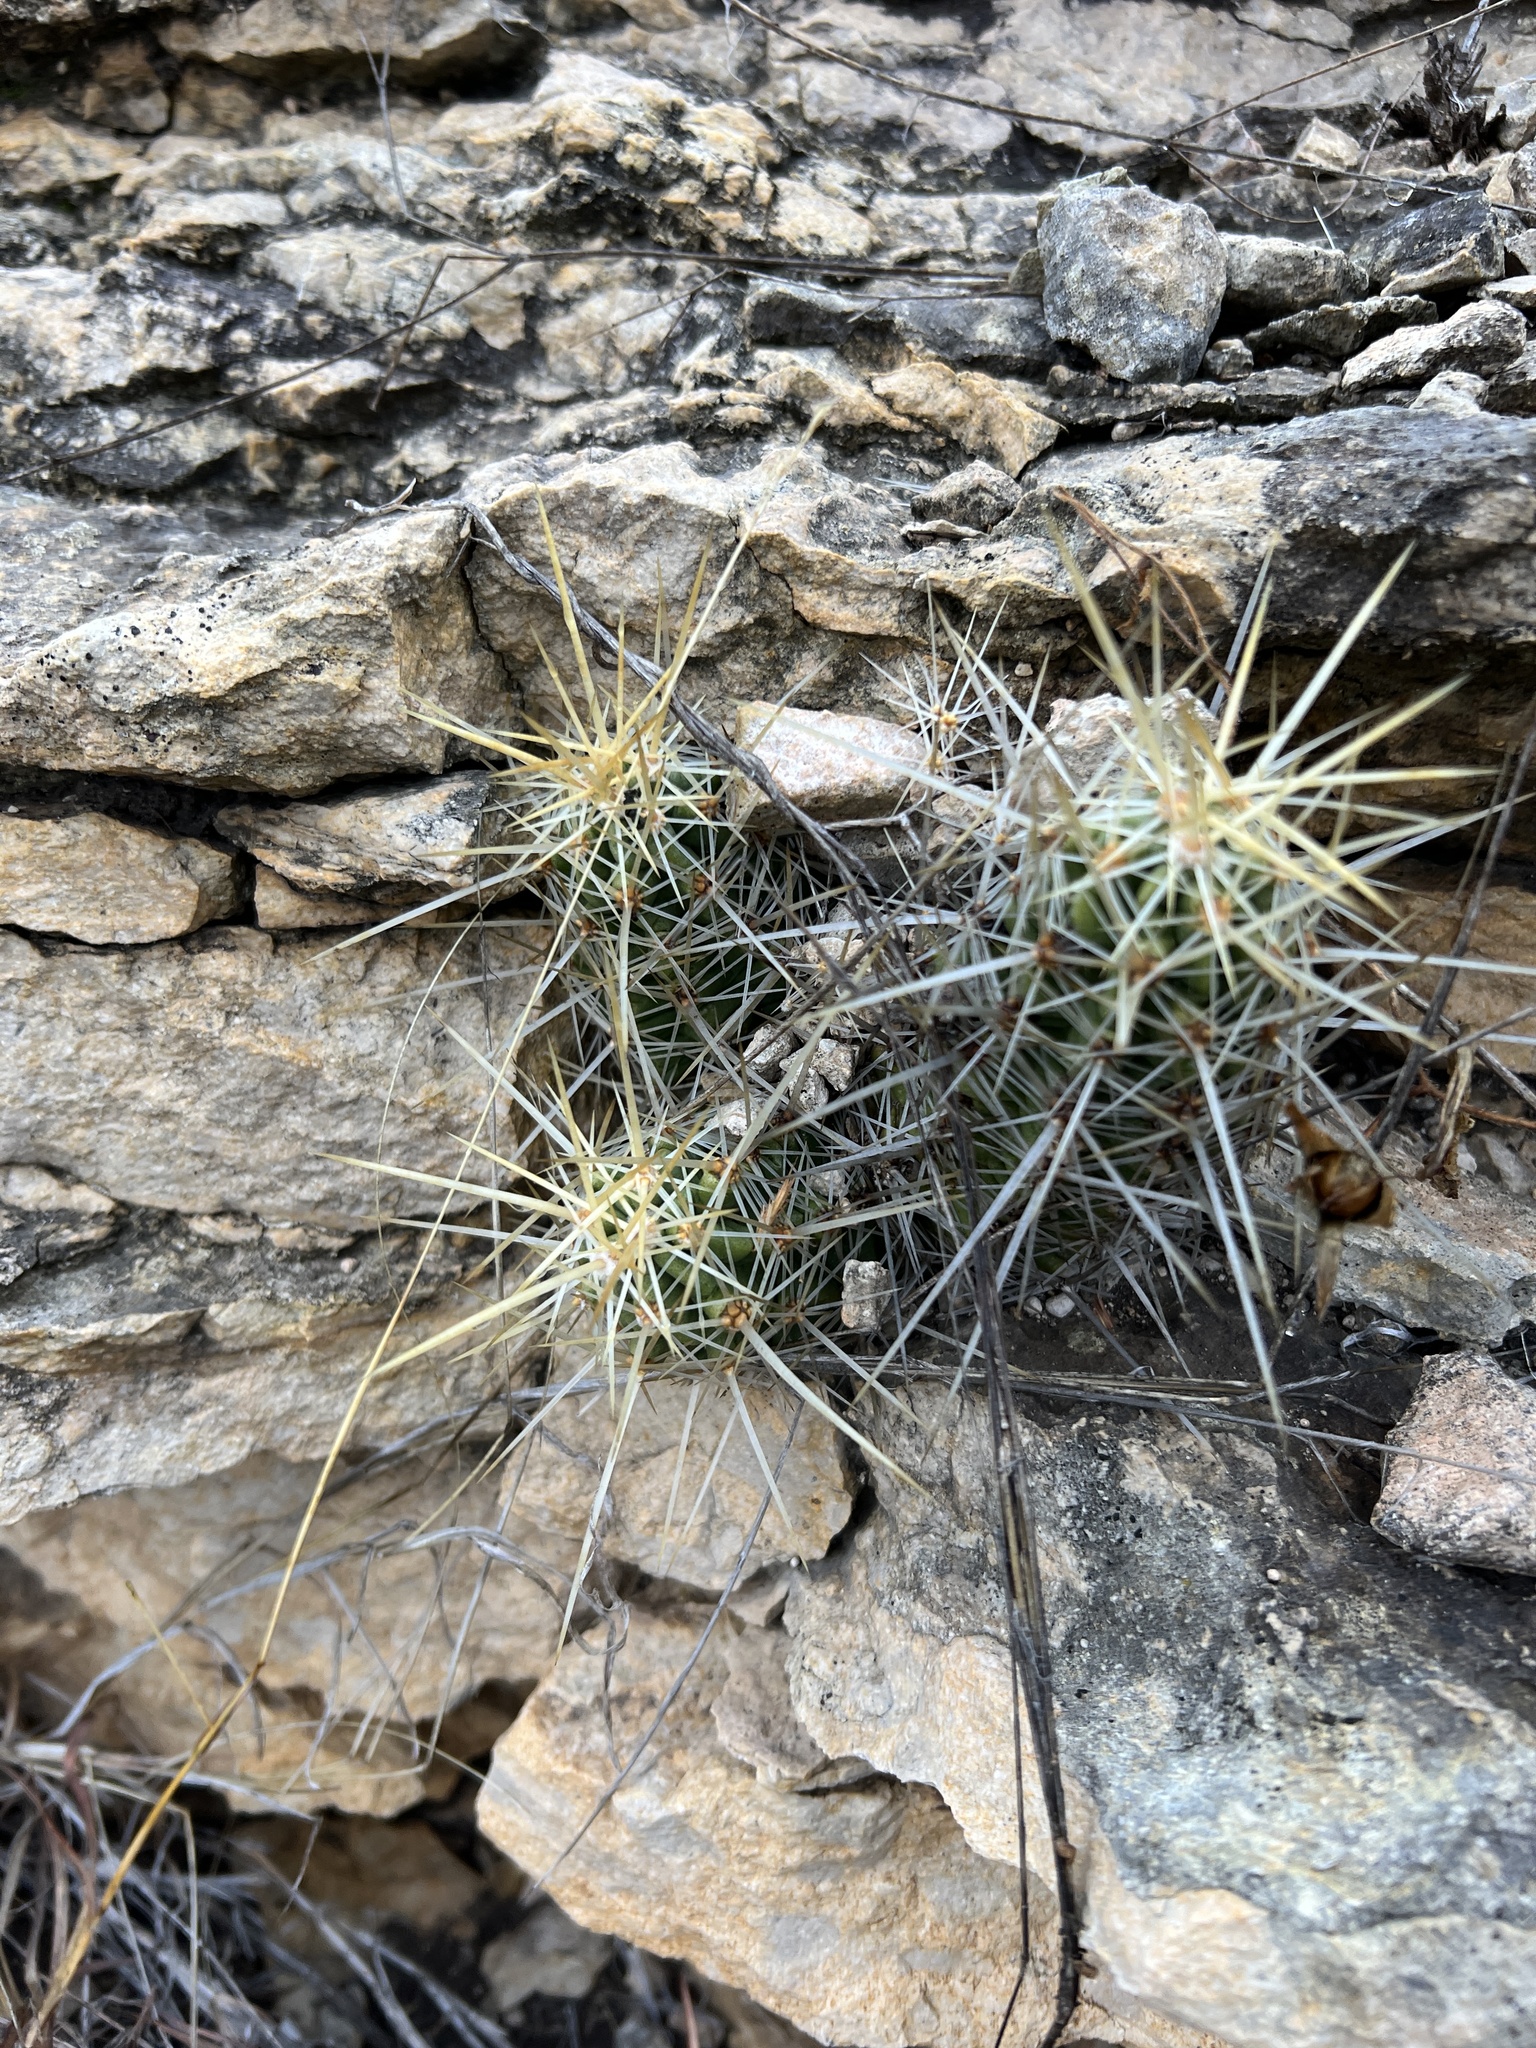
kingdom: Plantae
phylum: Tracheophyta
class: Magnoliopsida
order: Caryophyllales
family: Cactaceae
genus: Echinocereus
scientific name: Echinocereus enneacanthus
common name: Pitaya
